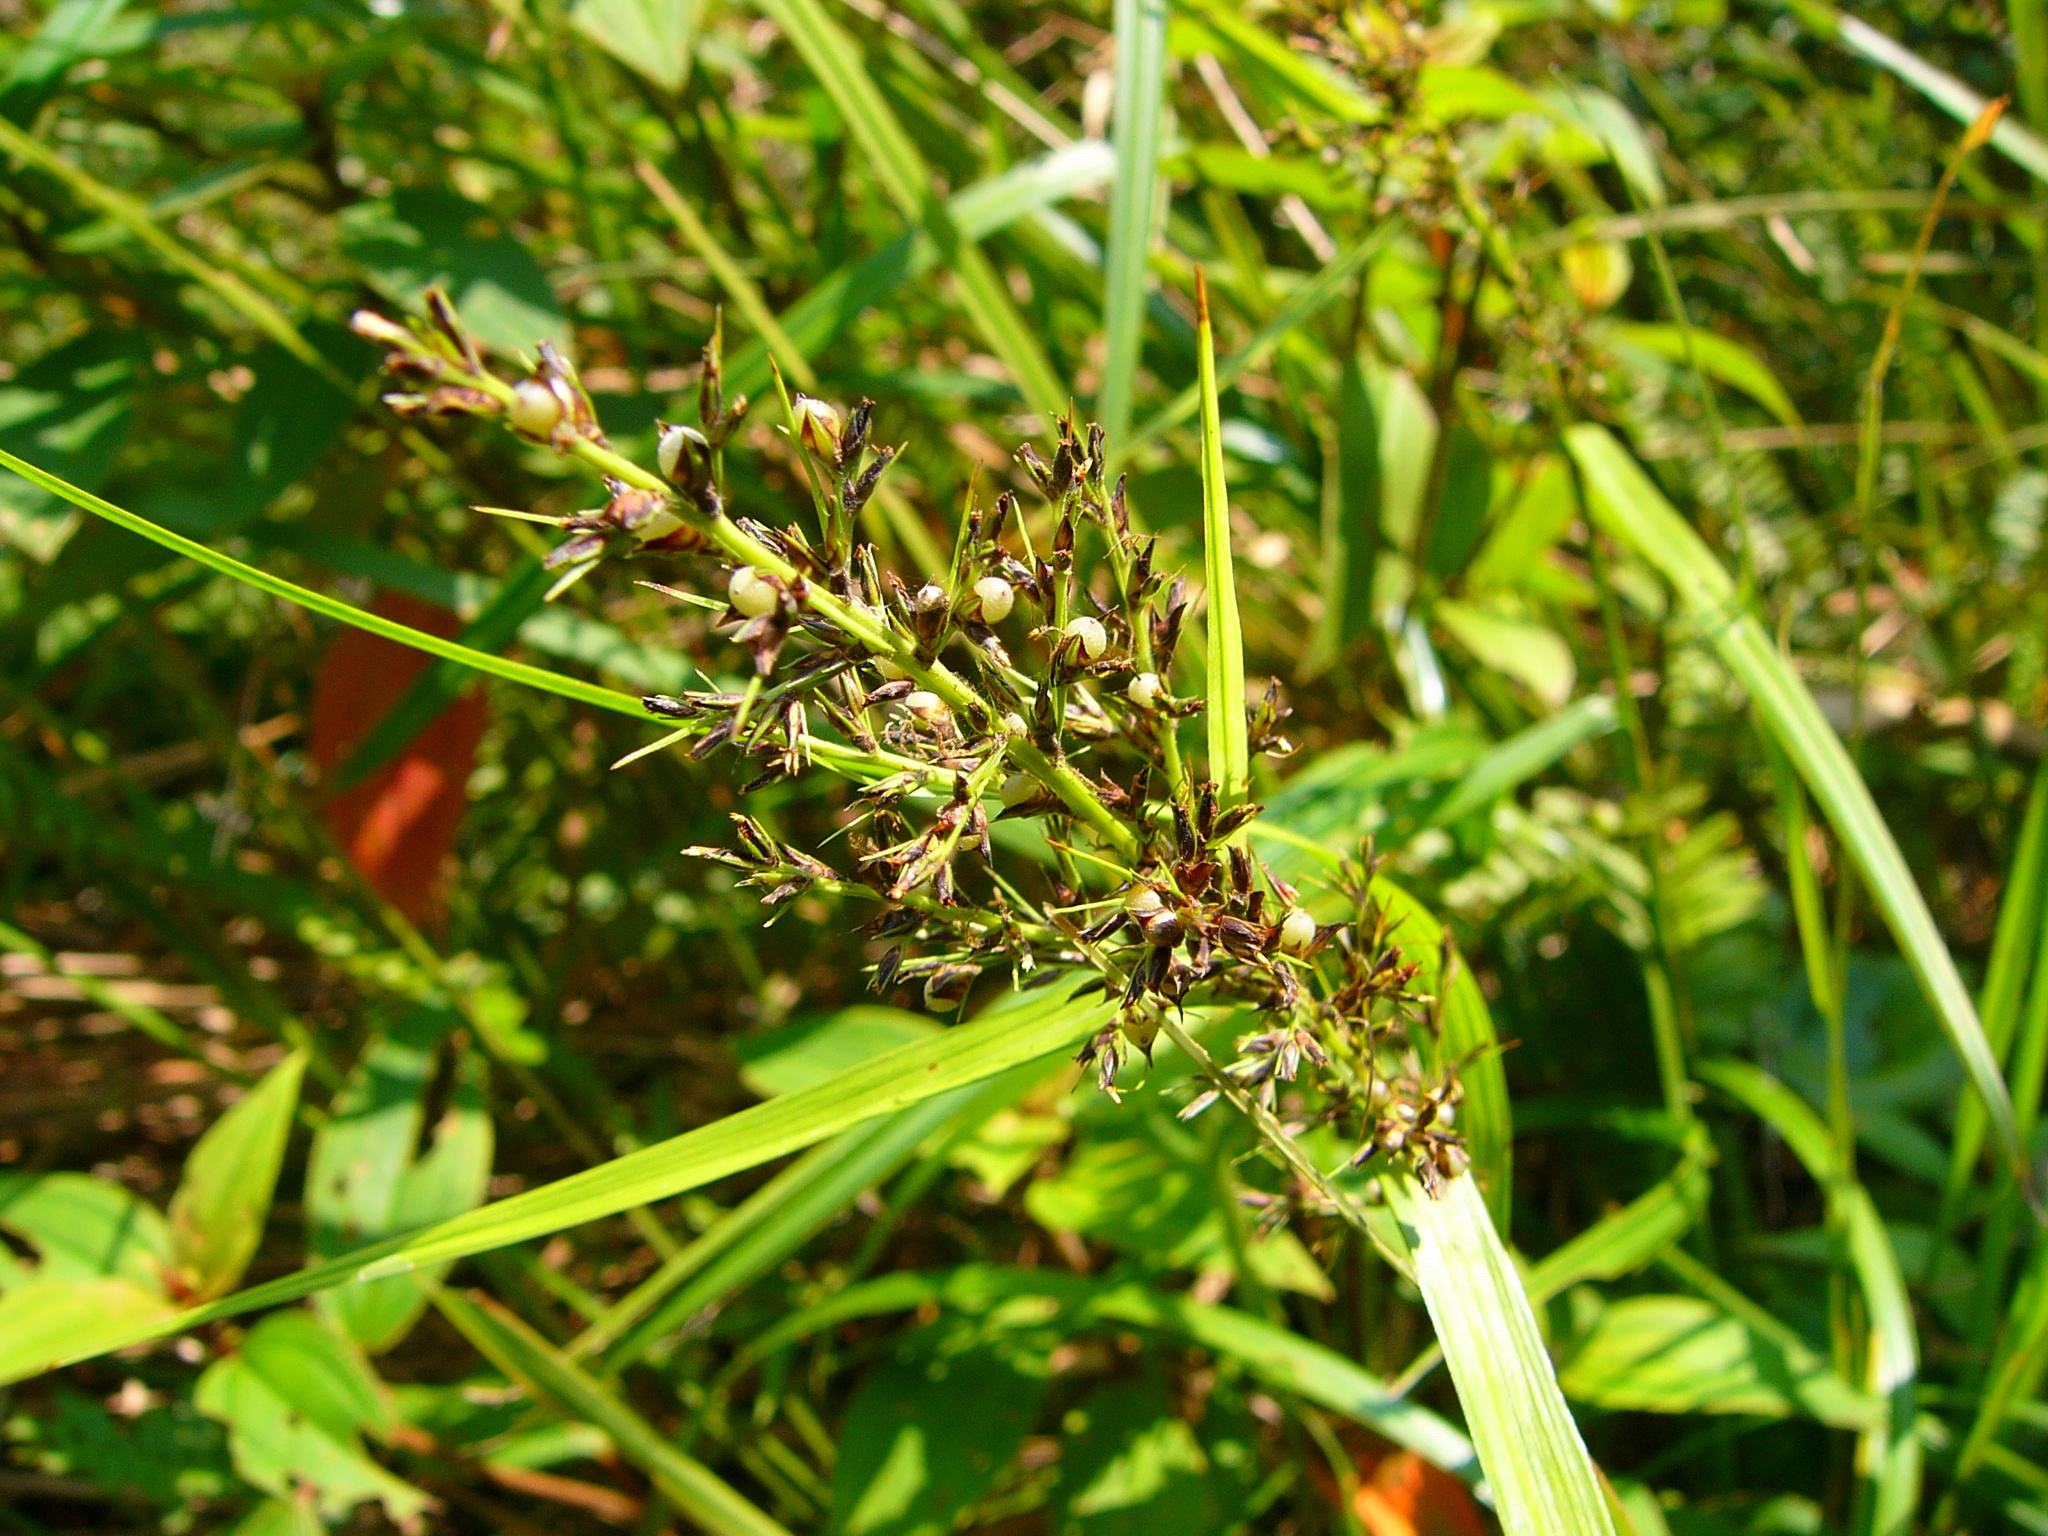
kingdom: Plantae
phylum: Tracheophyta
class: Liliopsida
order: Poales
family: Cyperaceae
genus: Scleria
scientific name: Scleria terrestris
